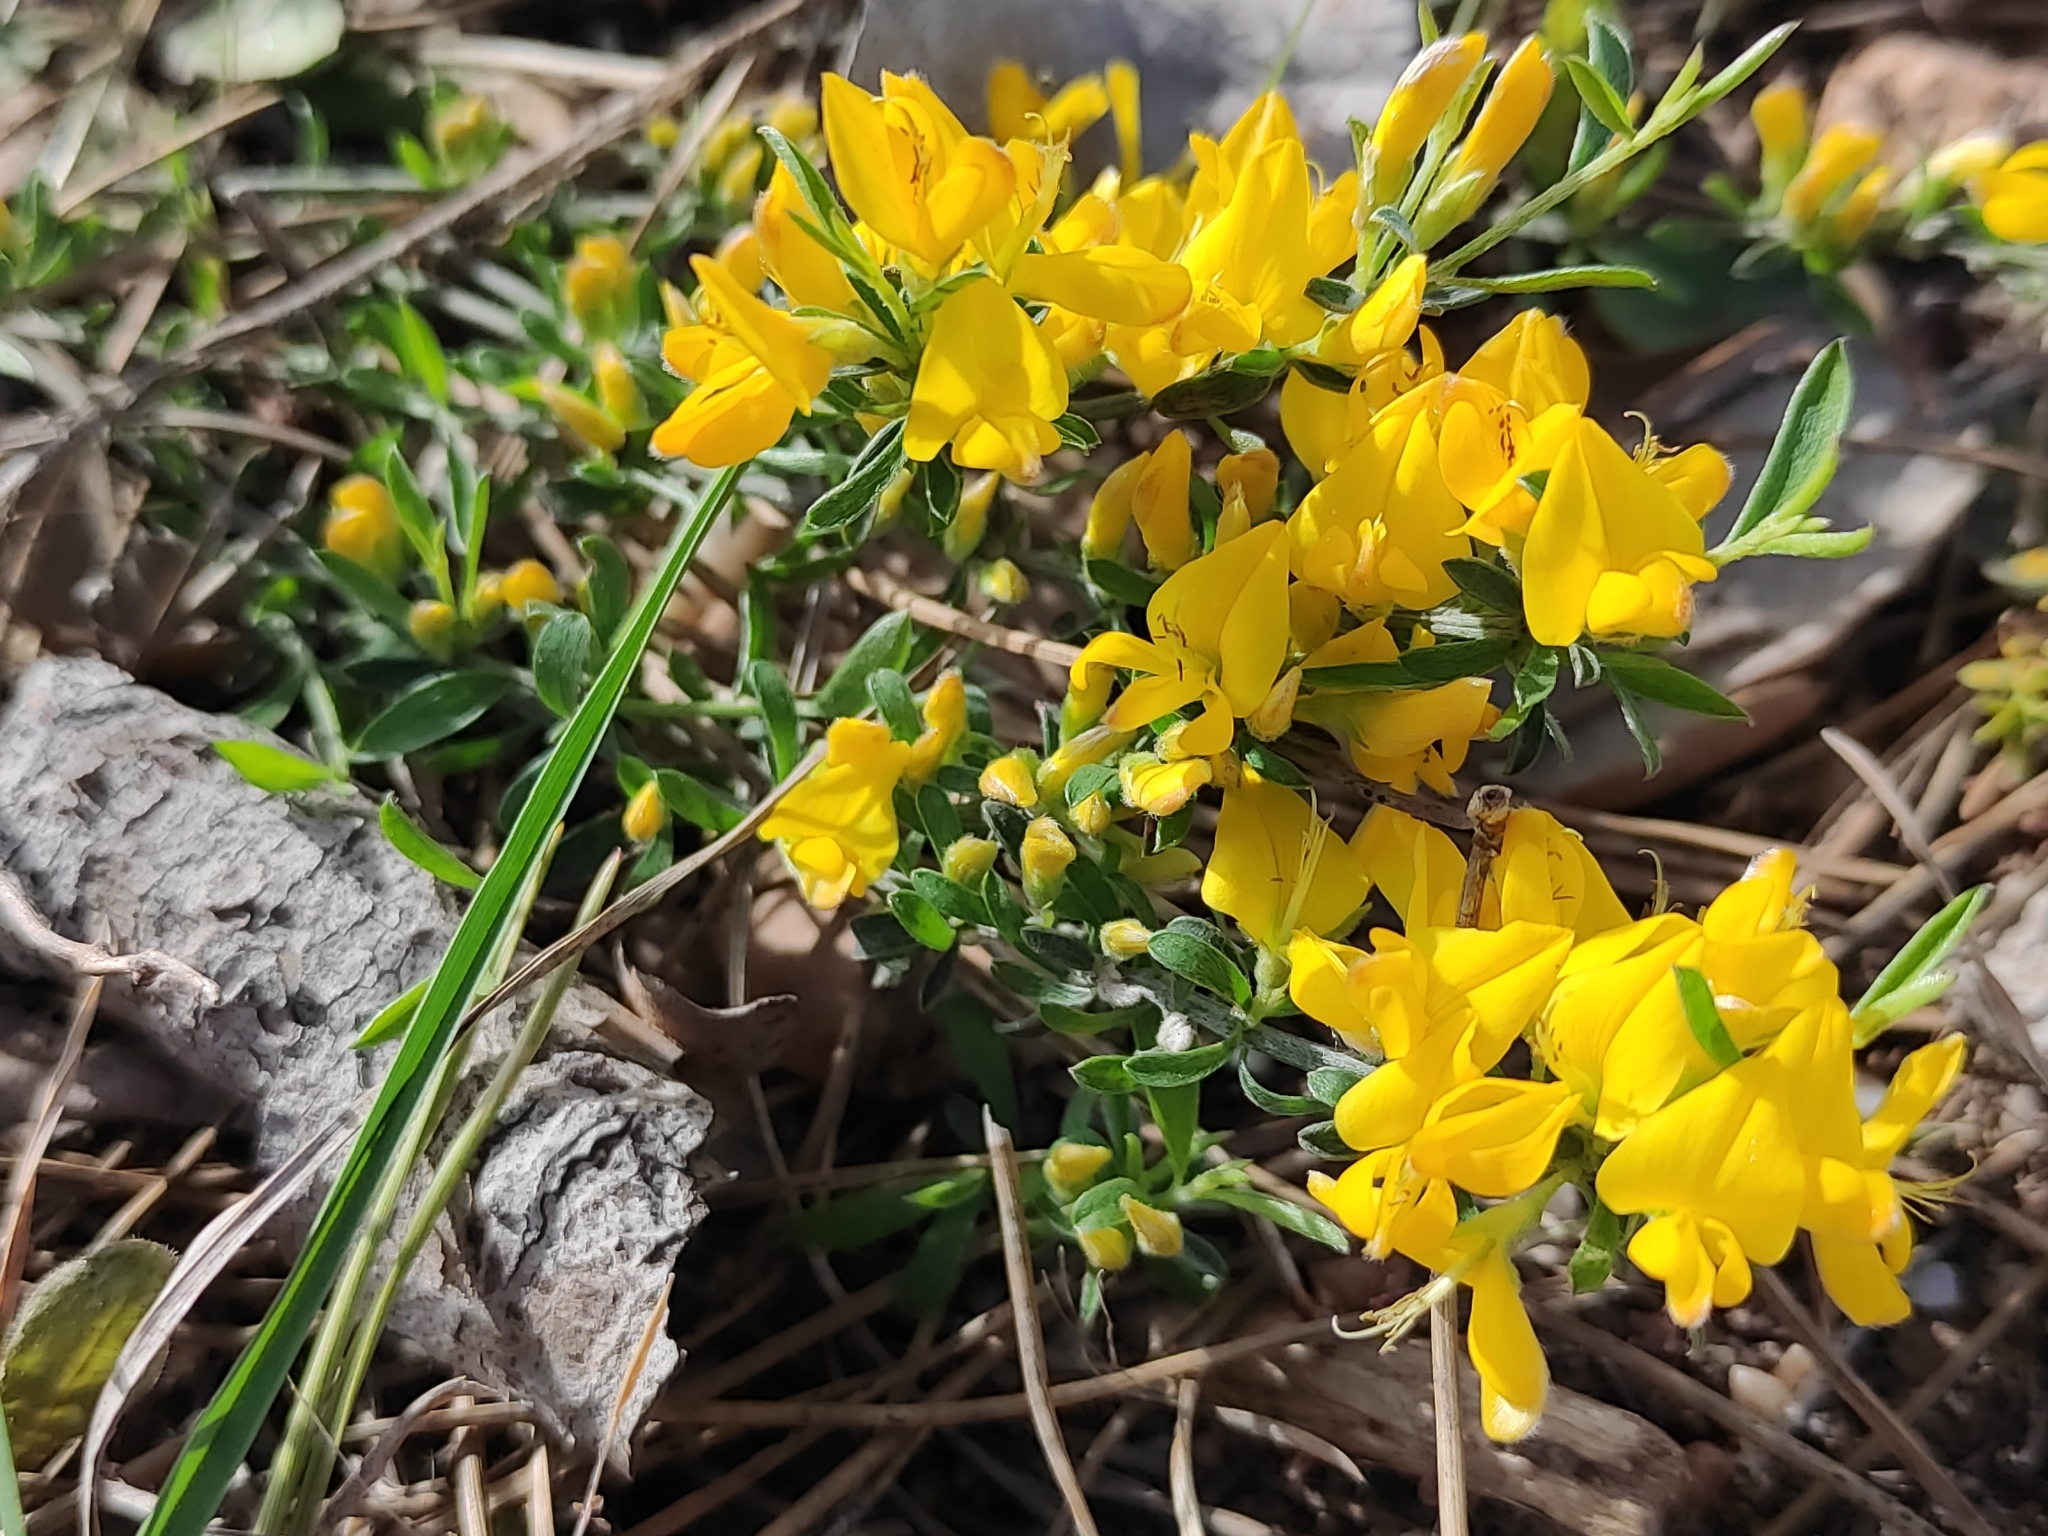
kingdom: Plantae
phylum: Tracheophyta
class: Magnoliopsida
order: Fabales
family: Fabaceae
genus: Genista
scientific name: Genista pilosa
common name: Hairy greenweed
